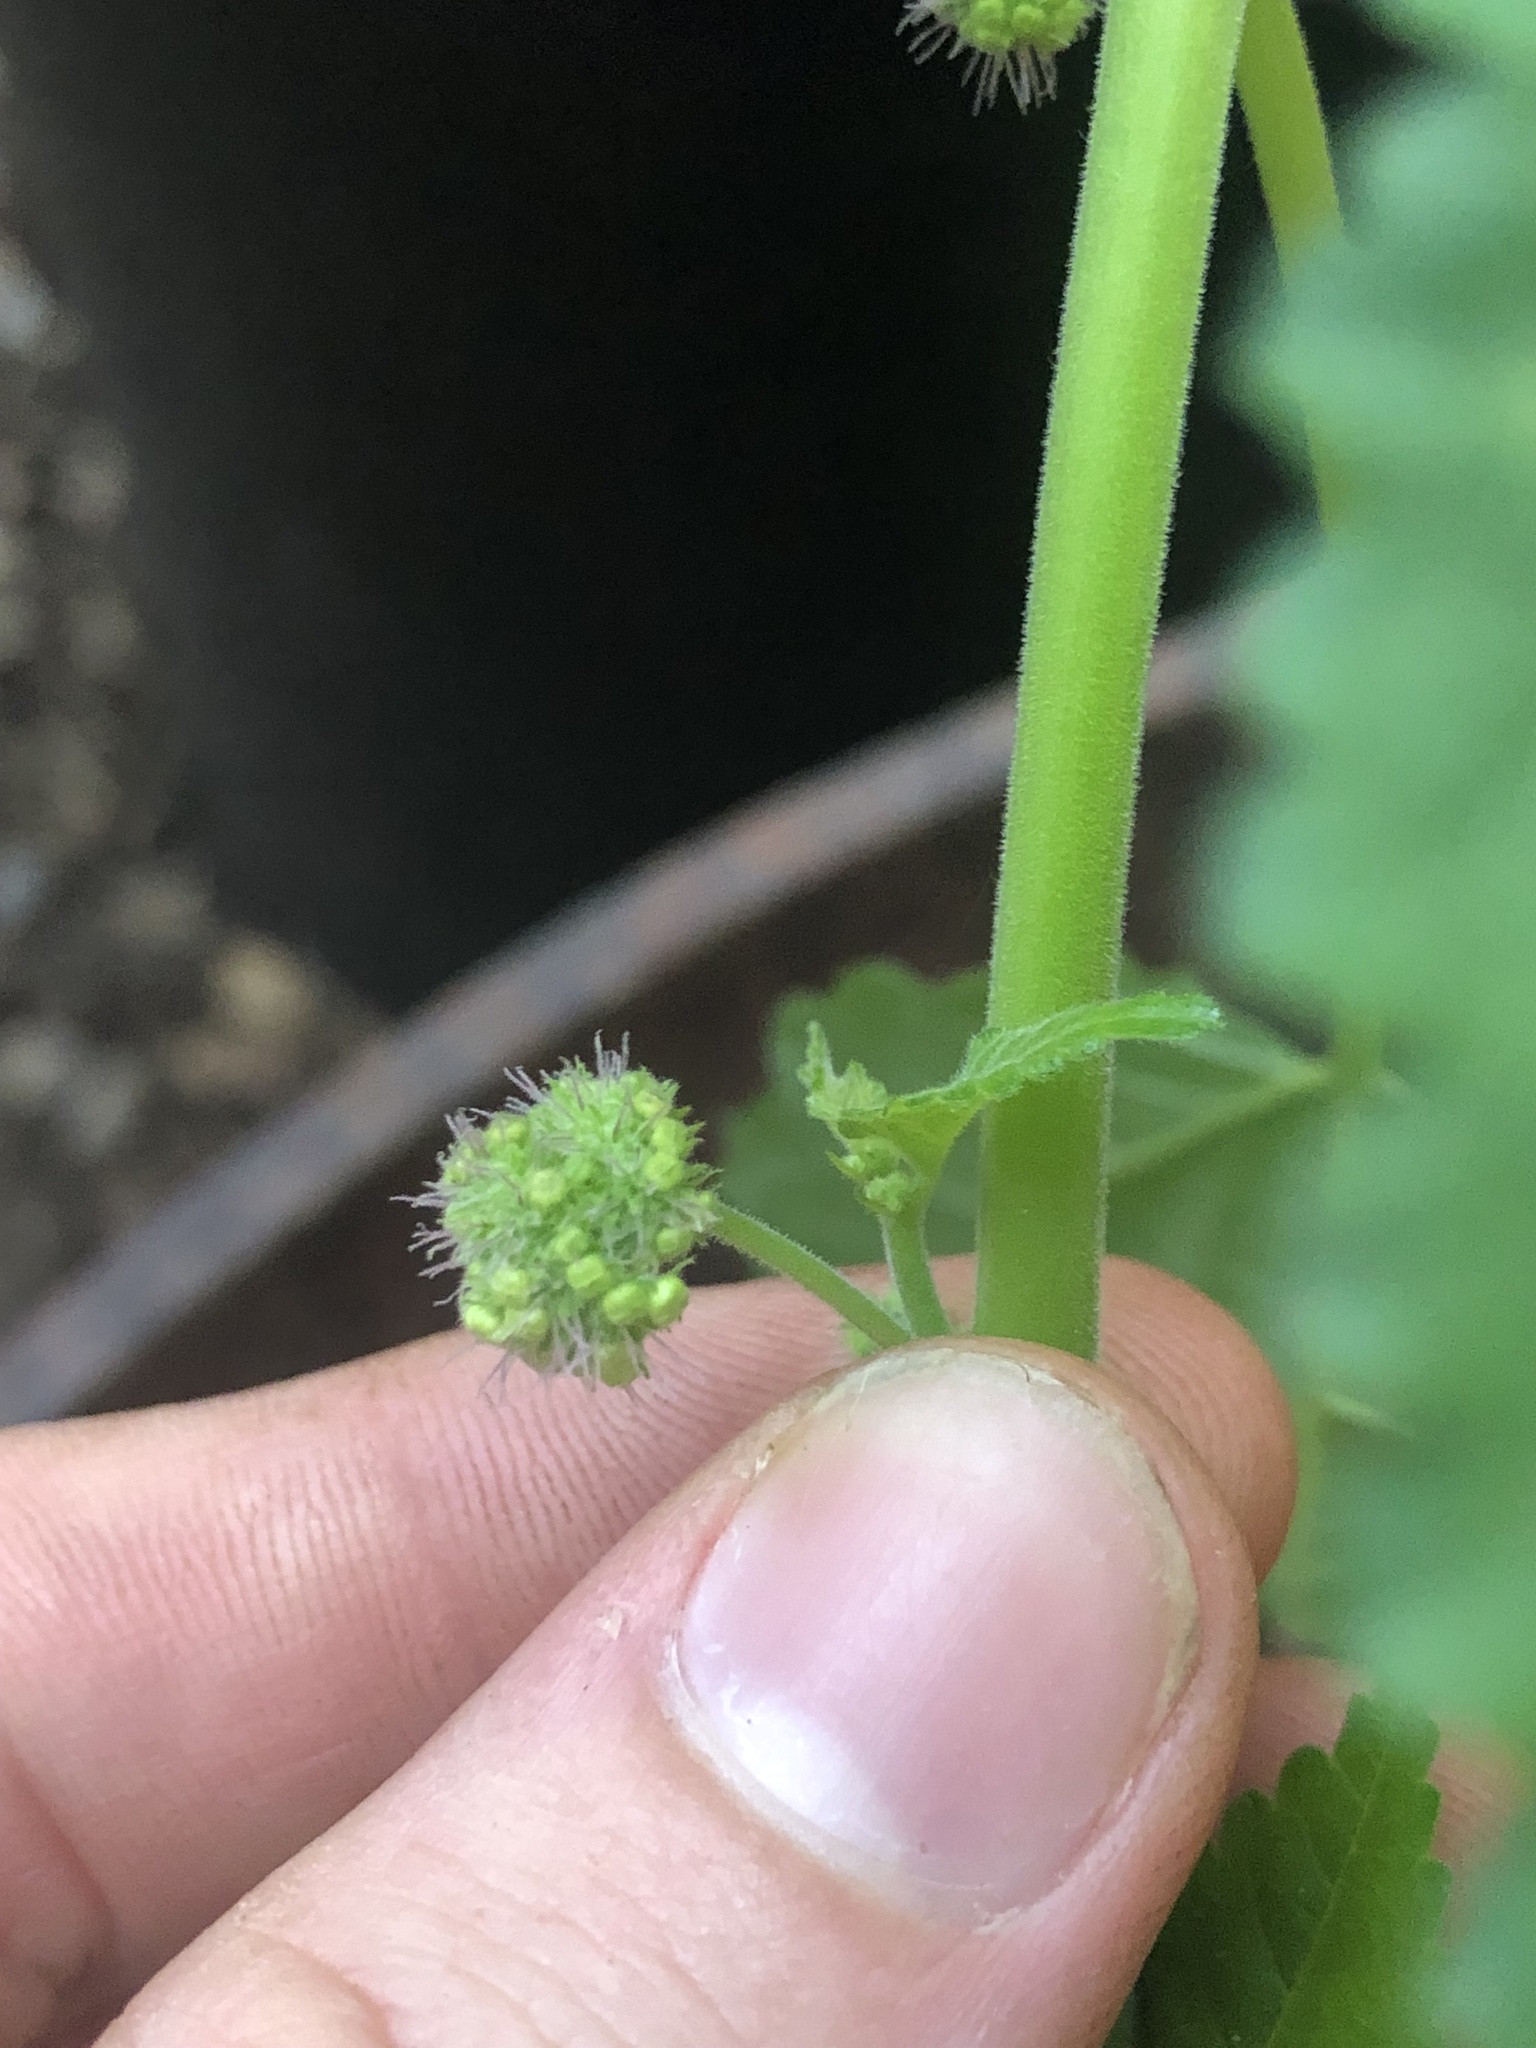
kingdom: Plantae
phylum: Tracheophyta
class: Magnoliopsida
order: Rosales
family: Moraceae
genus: Fatoua
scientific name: Fatoua villosa
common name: Hairy crabweed
